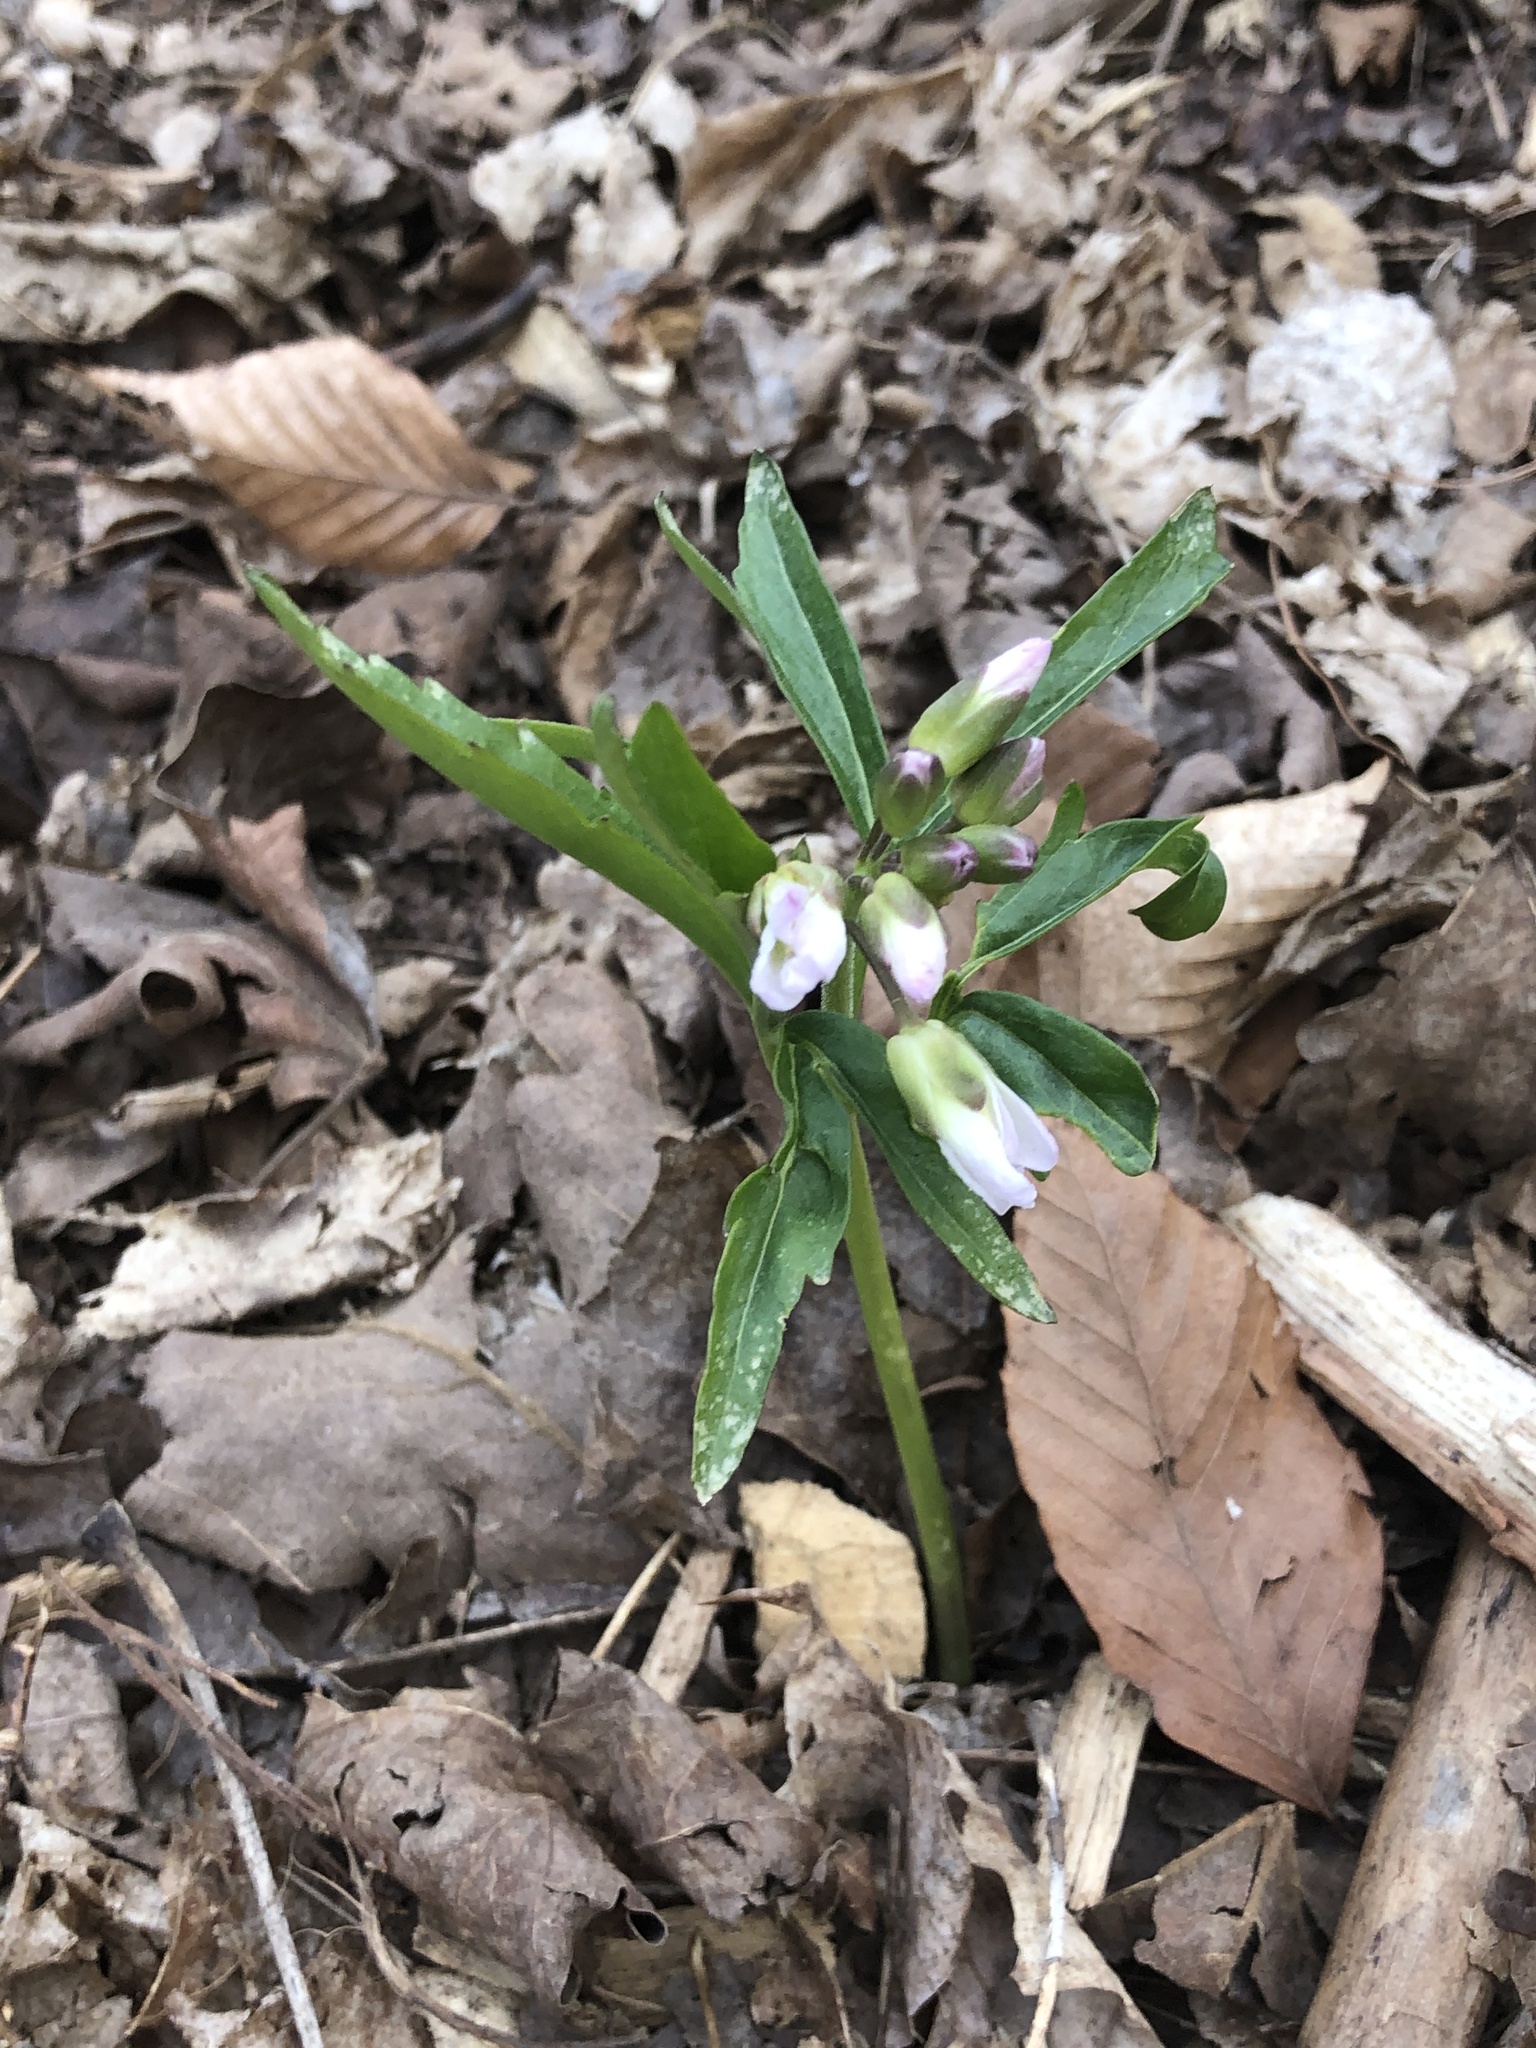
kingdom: Plantae
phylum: Tracheophyta
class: Magnoliopsida
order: Brassicales
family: Brassicaceae
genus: Cardamine
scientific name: Cardamine concatenata
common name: Cut-leaf toothcup
